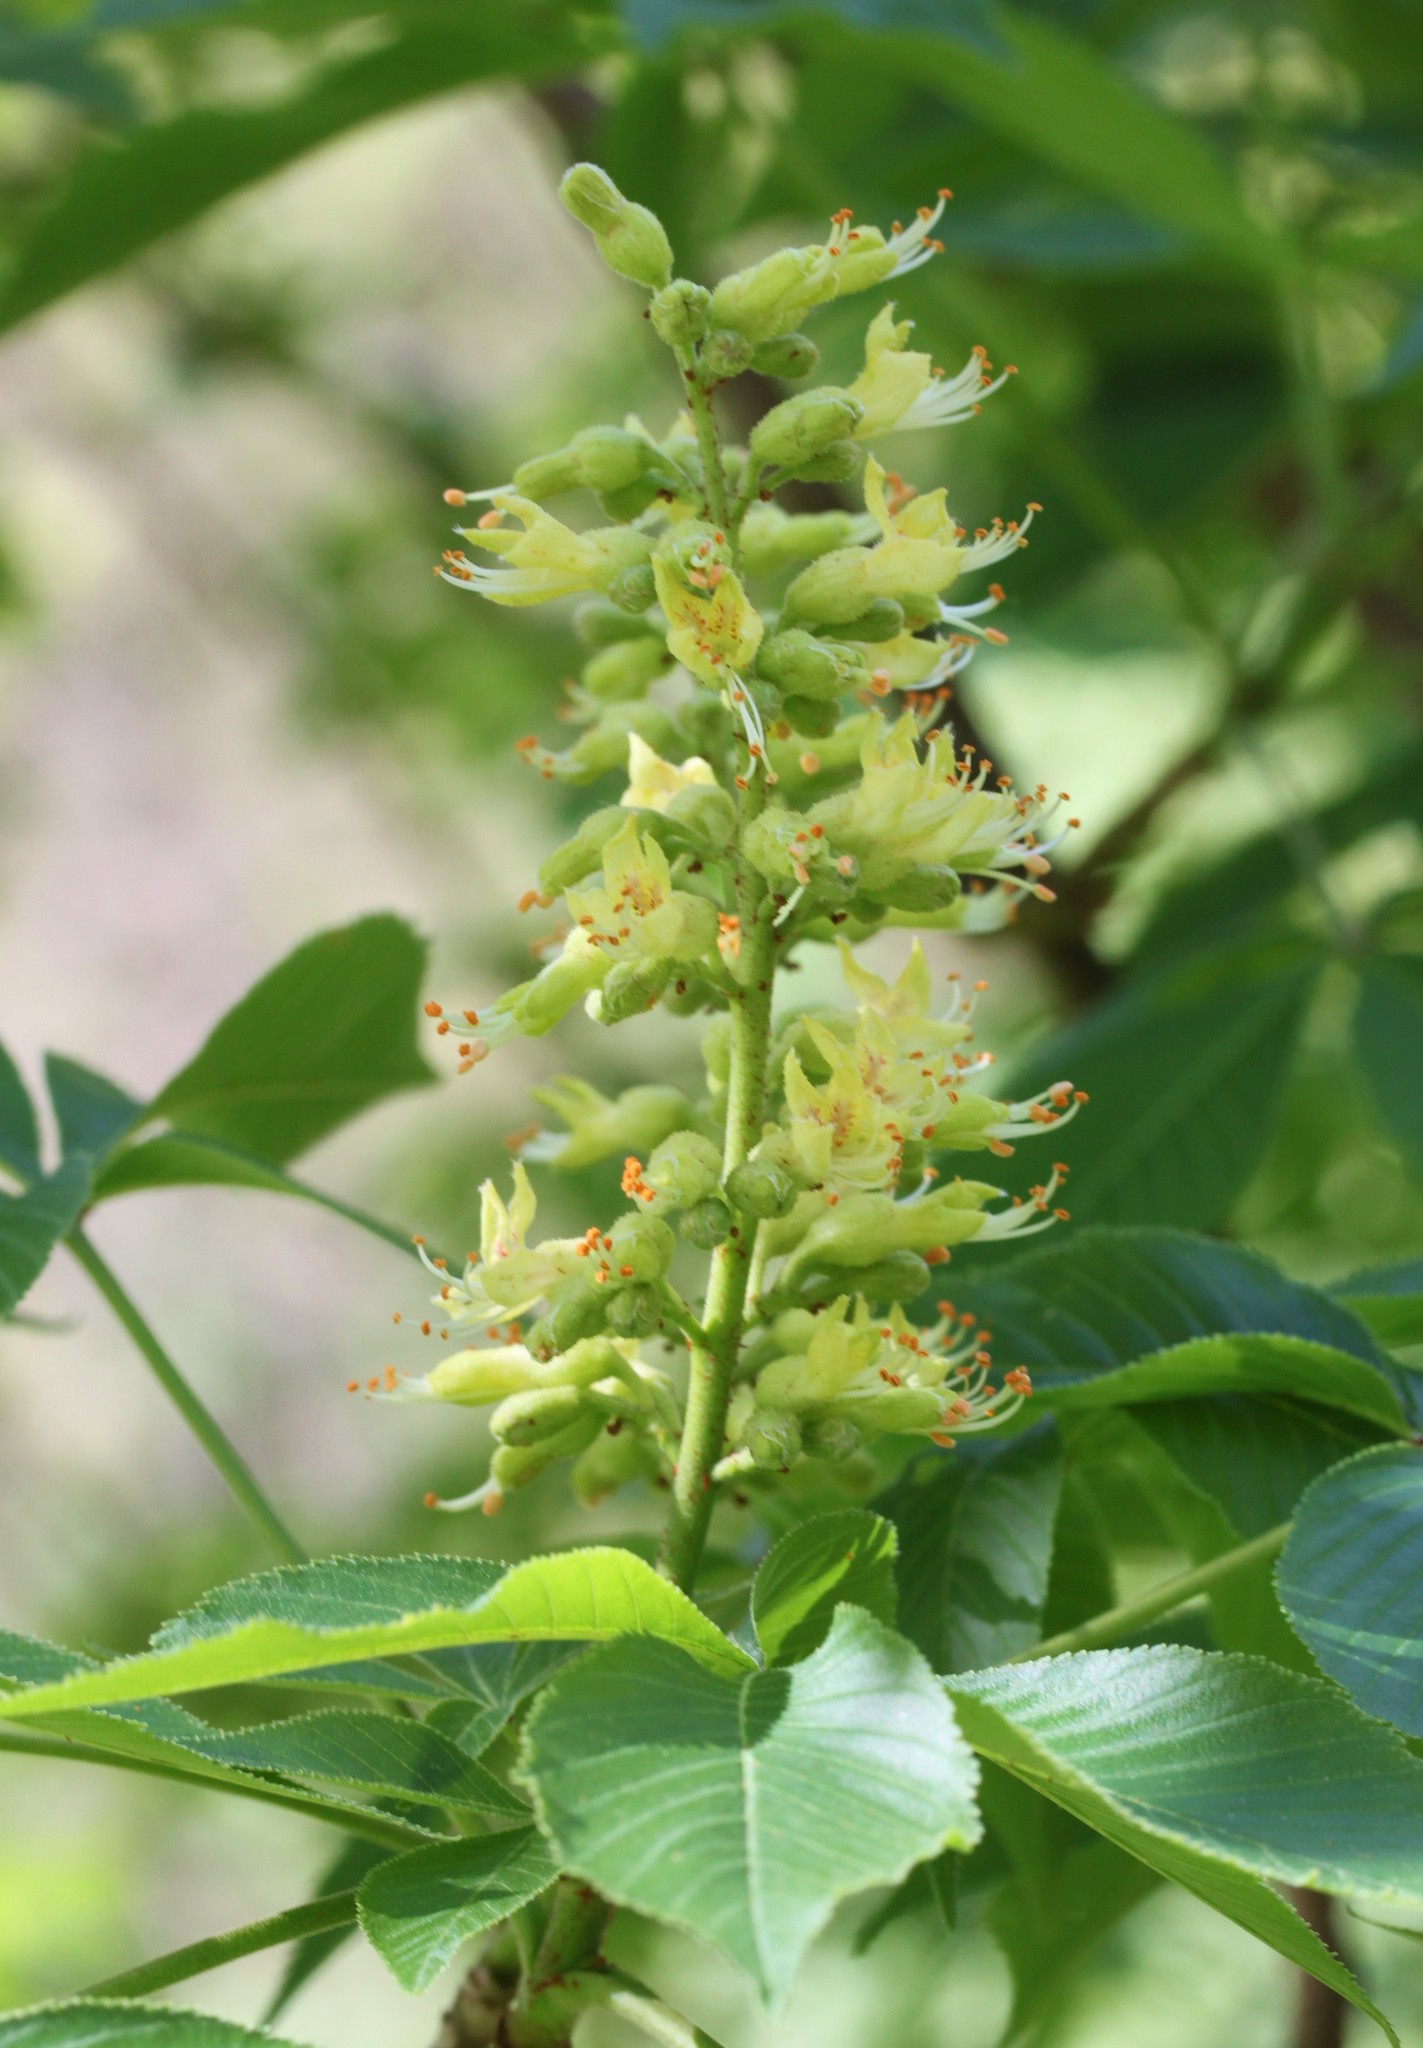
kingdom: Plantae
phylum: Tracheophyta
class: Magnoliopsida
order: Sapindales
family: Sapindaceae
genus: Aesculus
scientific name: Aesculus glabra
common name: Ohio buckeye
